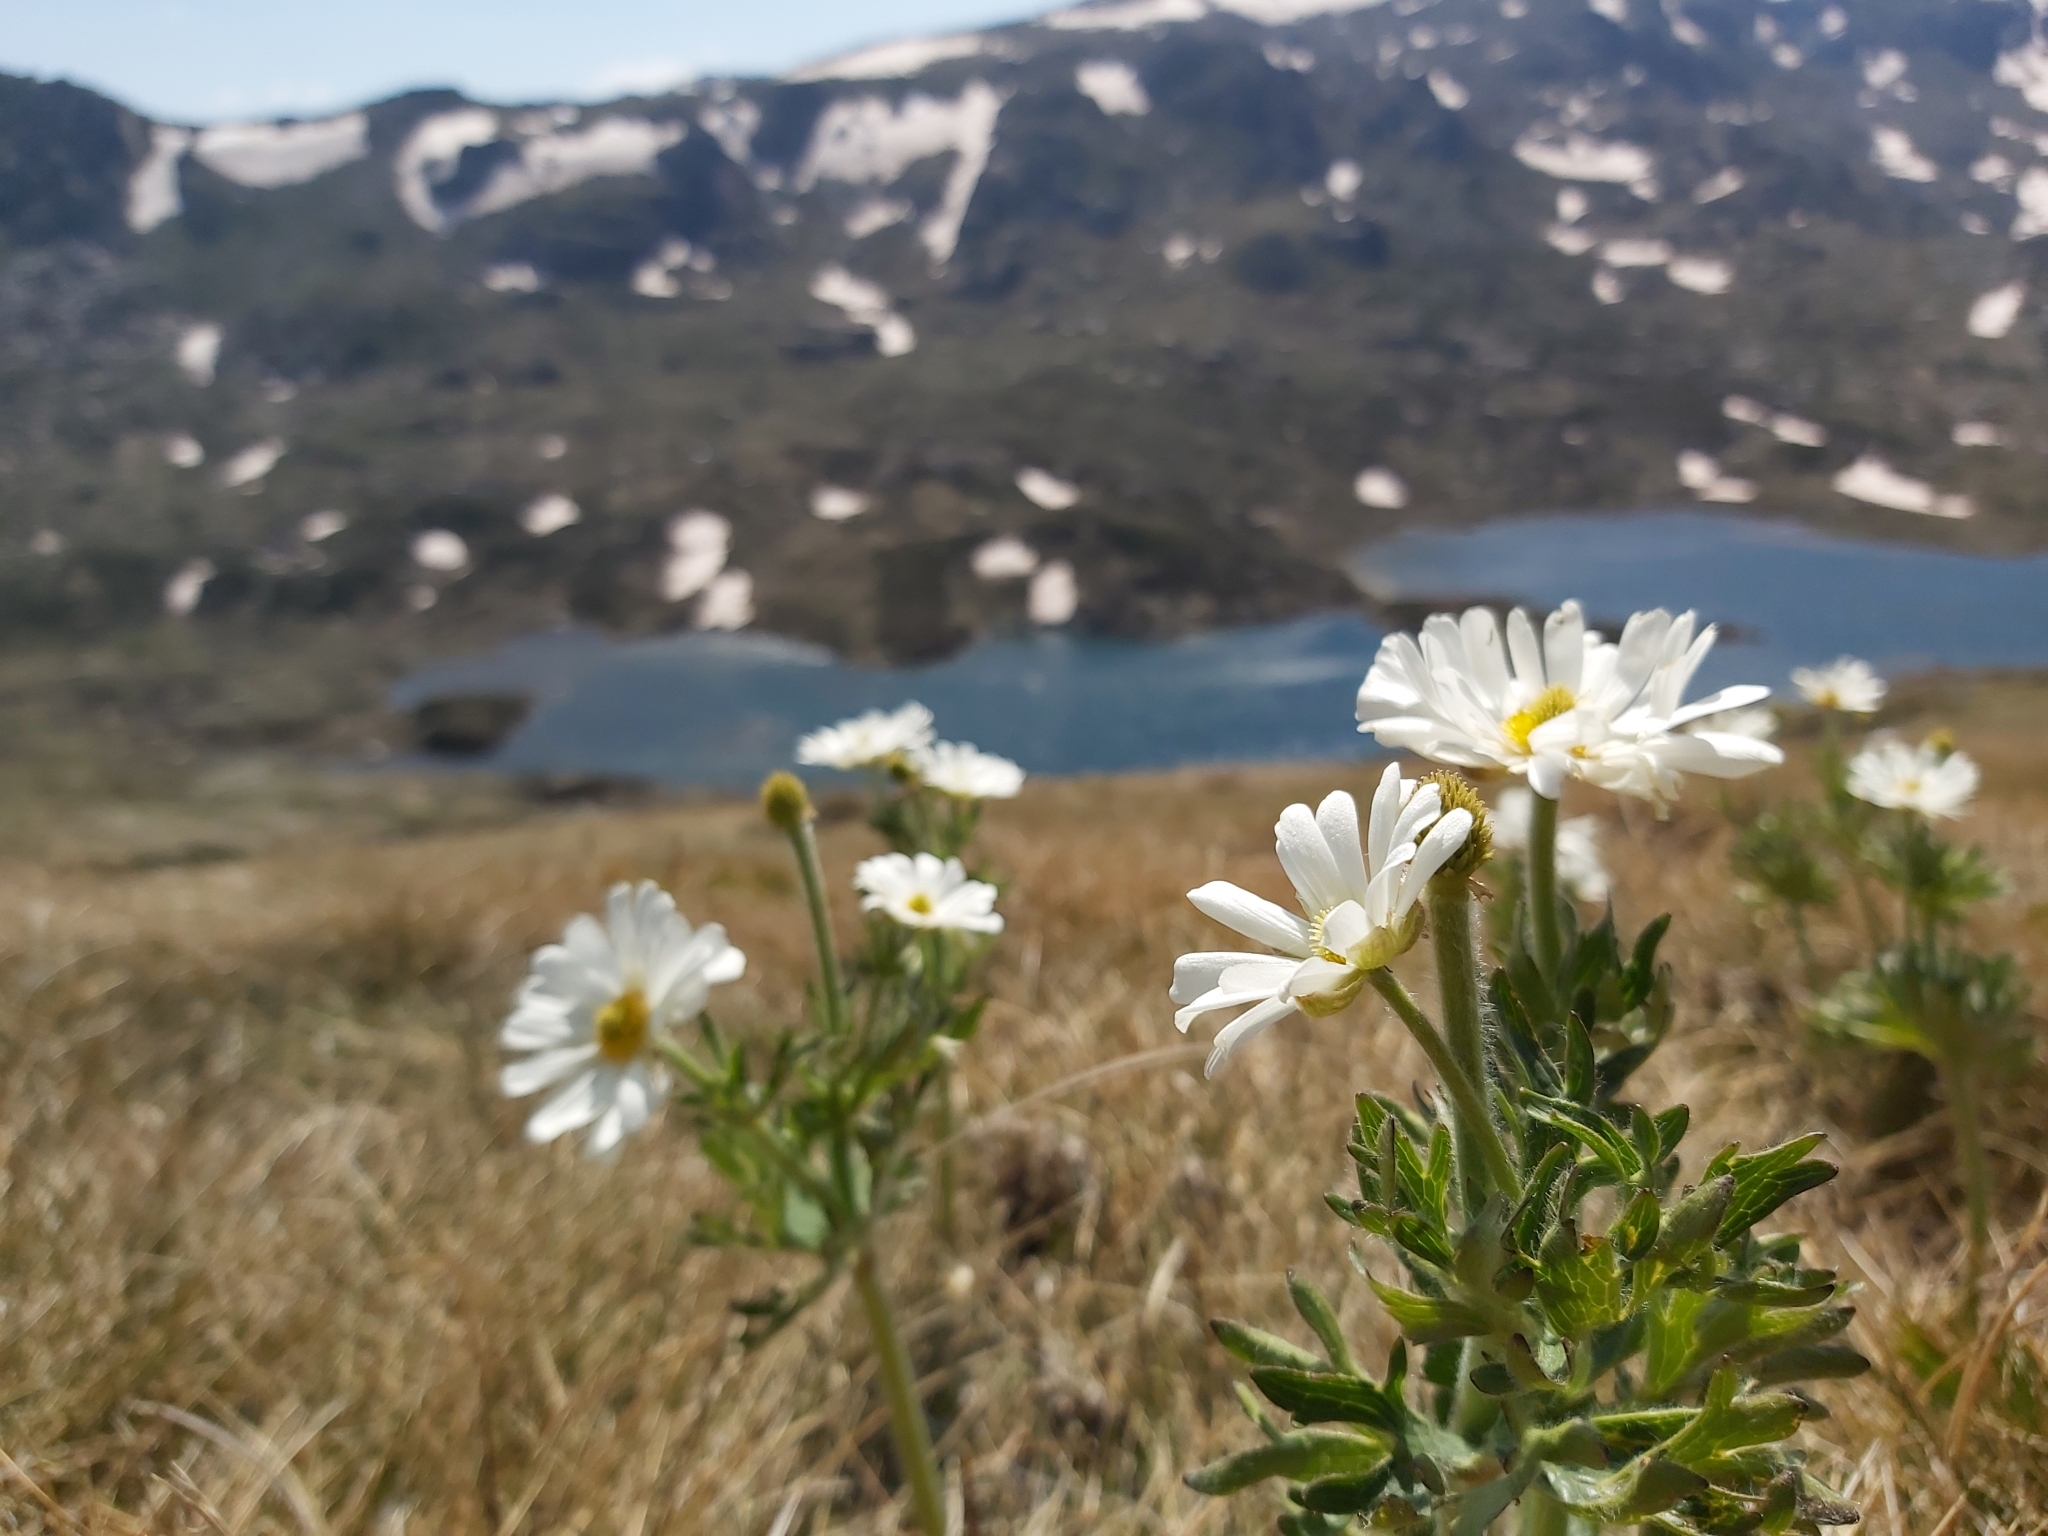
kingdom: Plantae
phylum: Tracheophyta
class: Magnoliopsida
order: Ranunculales
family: Ranunculaceae
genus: Ranunculus
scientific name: Ranunculus anemoneus
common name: Anemone buttercup
